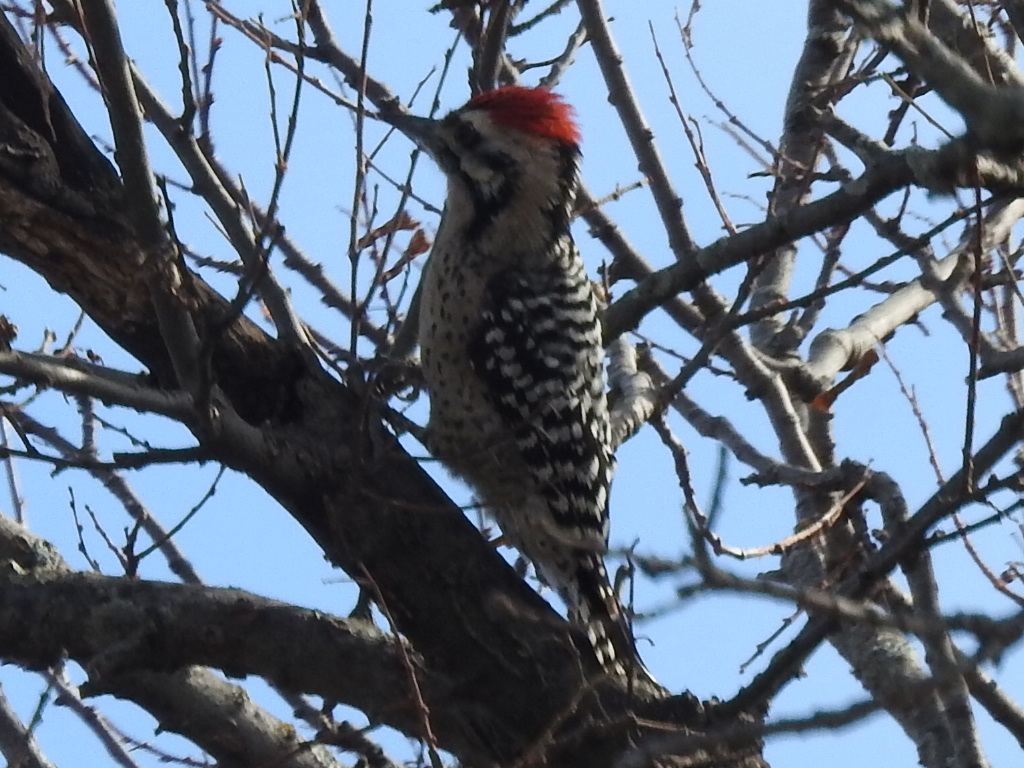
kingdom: Animalia
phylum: Chordata
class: Aves
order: Piciformes
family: Picidae
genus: Dryobates
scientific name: Dryobates scalaris
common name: Ladder-backed woodpecker
